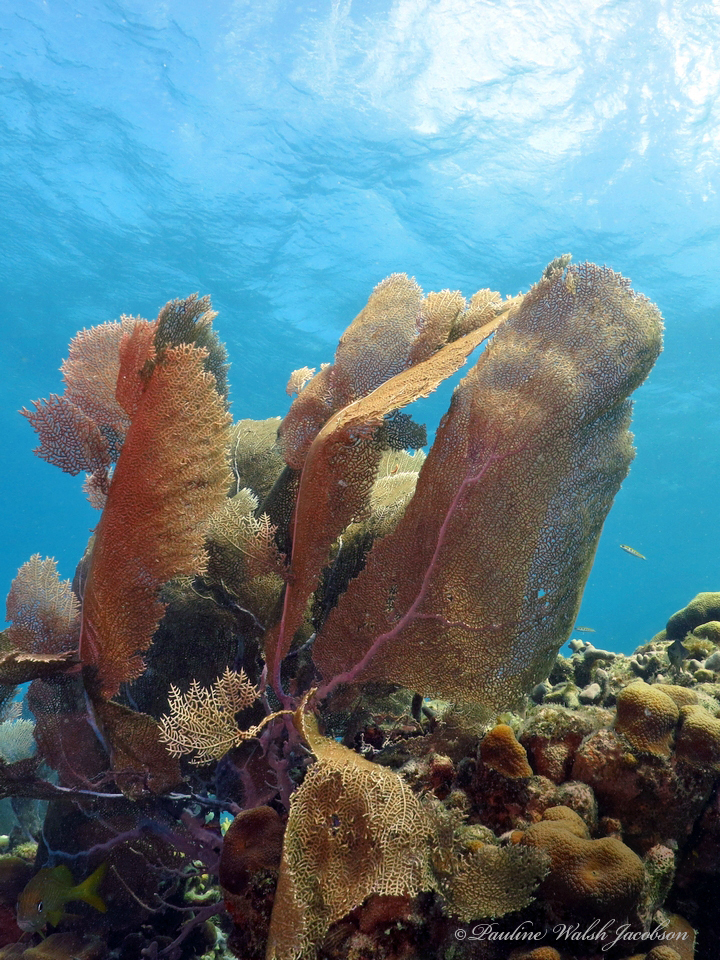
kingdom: Animalia
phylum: Cnidaria
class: Anthozoa
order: Malacalcyonacea
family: Gorgoniidae
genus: Gorgonia
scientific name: Gorgonia ventalina
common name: Common sea fan
